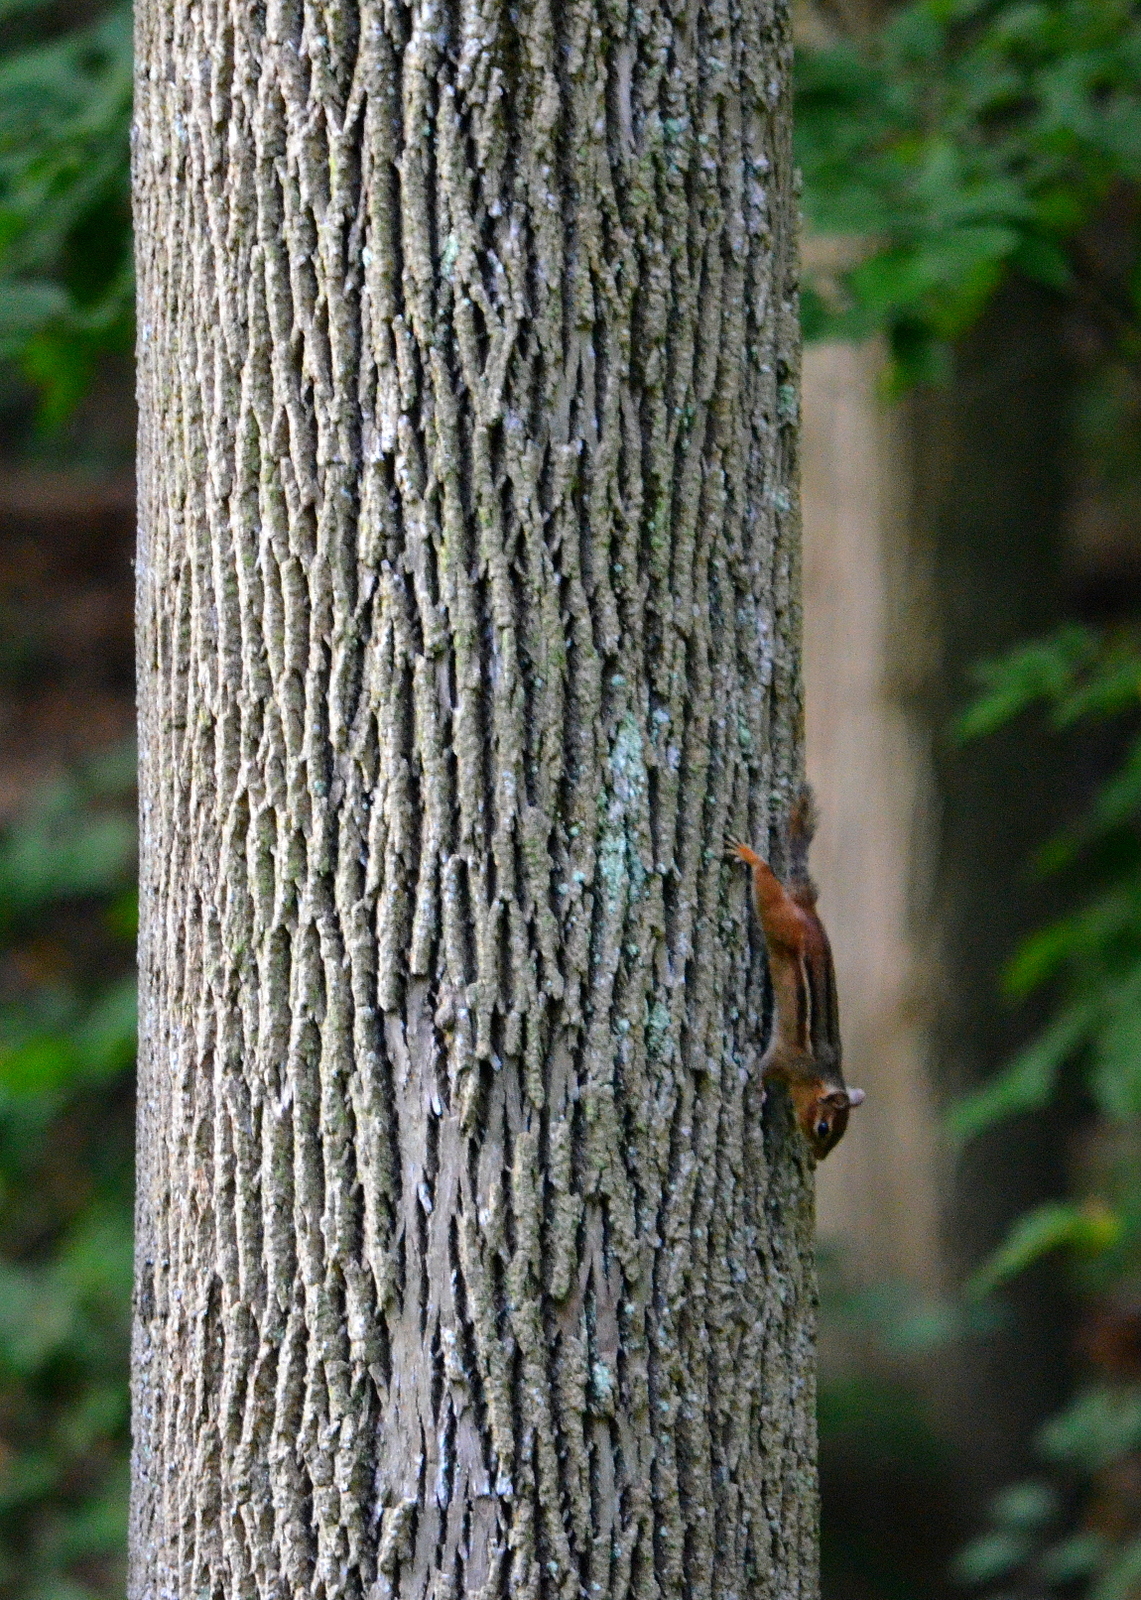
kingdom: Animalia
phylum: Chordata
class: Mammalia
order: Rodentia
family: Sciuridae
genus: Tamias
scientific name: Tamias striatus
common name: Eastern chipmunk
